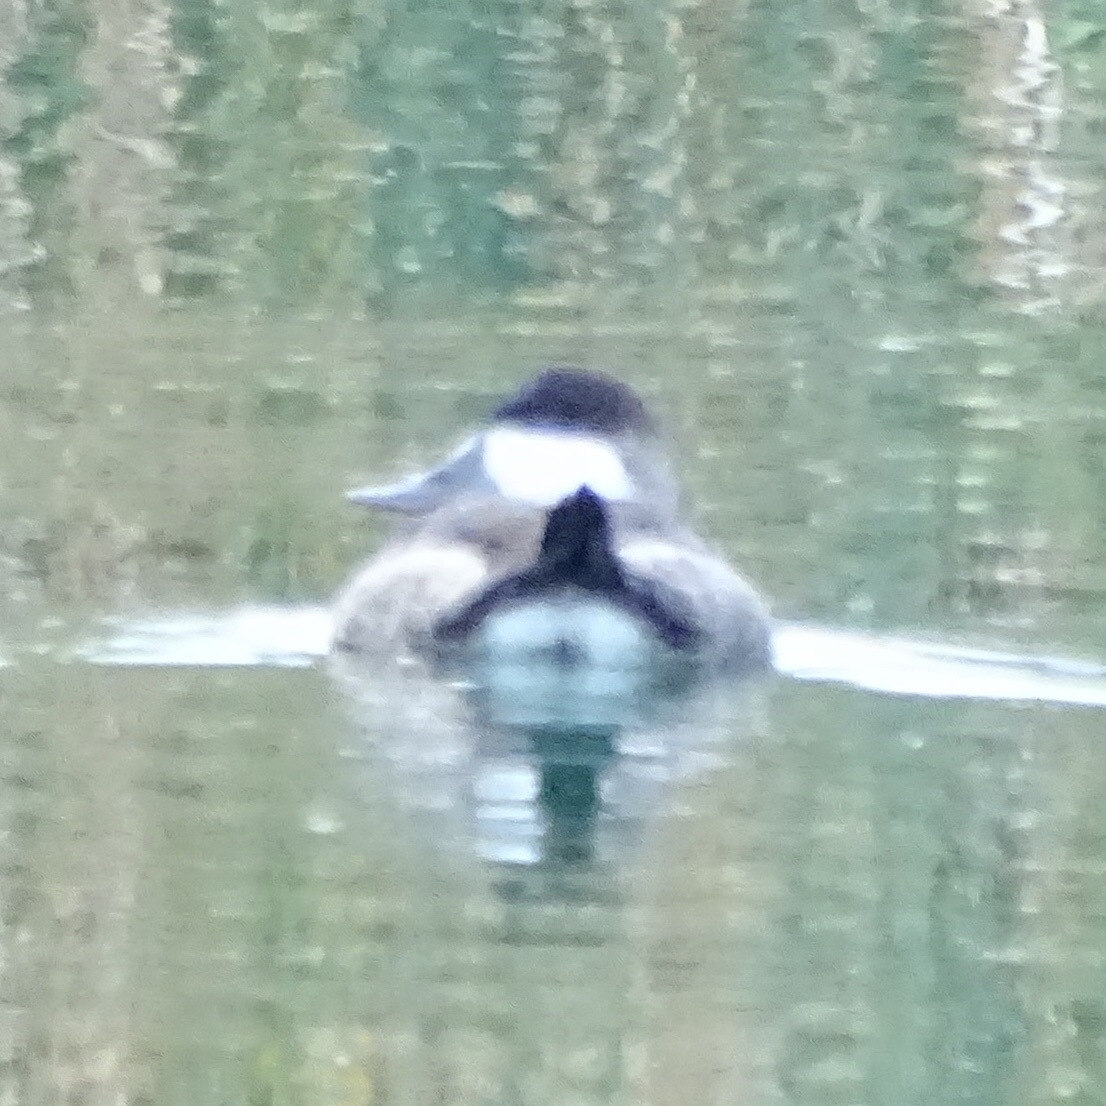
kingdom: Animalia
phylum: Chordata
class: Aves
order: Anseriformes
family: Anatidae
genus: Oxyura
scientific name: Oxyura jamaicensis
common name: Ruddy duck
